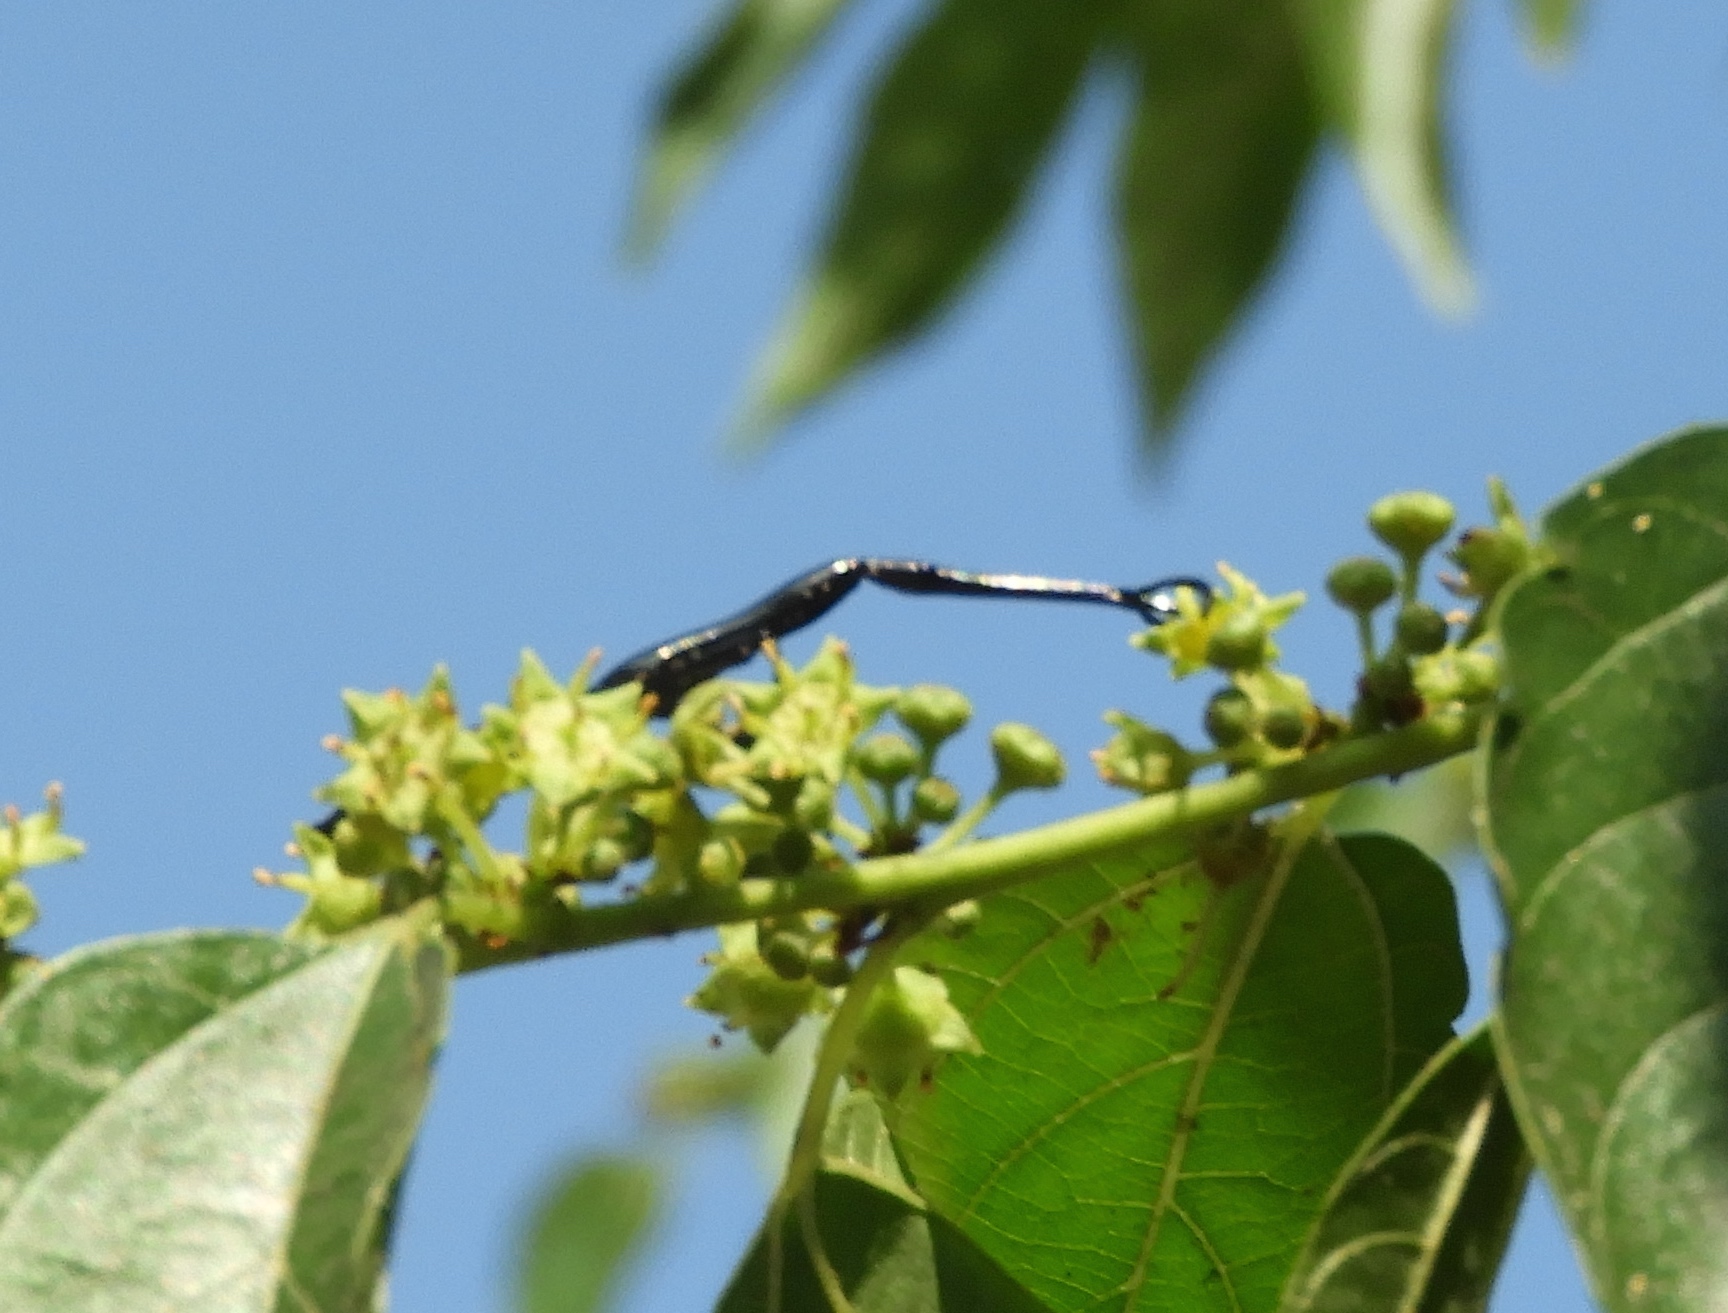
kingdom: Animalia
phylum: Arthropoda
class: Insecta
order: Coleoptera
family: Brentidae
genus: Brentus
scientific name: Brentus anchorago
